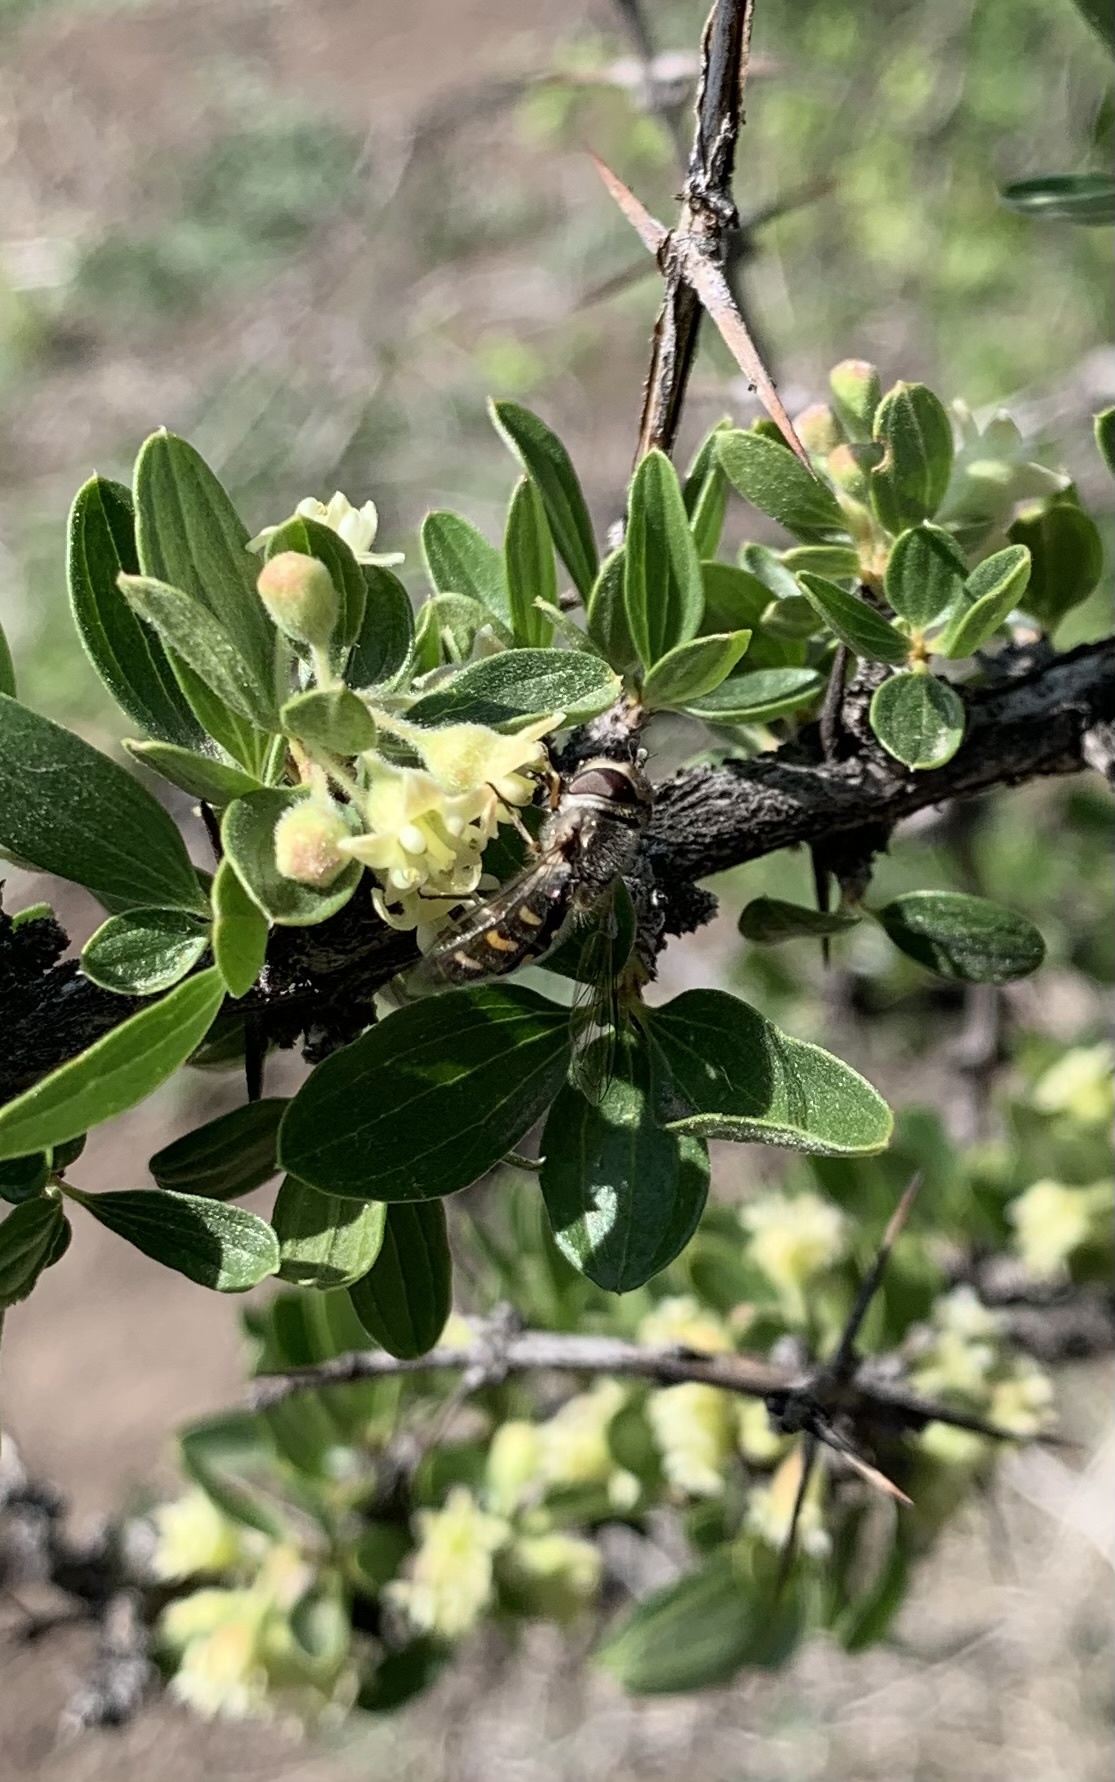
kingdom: Animalia
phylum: Arthropoda
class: Insecta
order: Diptera
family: Syrphidae
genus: Austroscaeva
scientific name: Austroscaeva melanostoma
